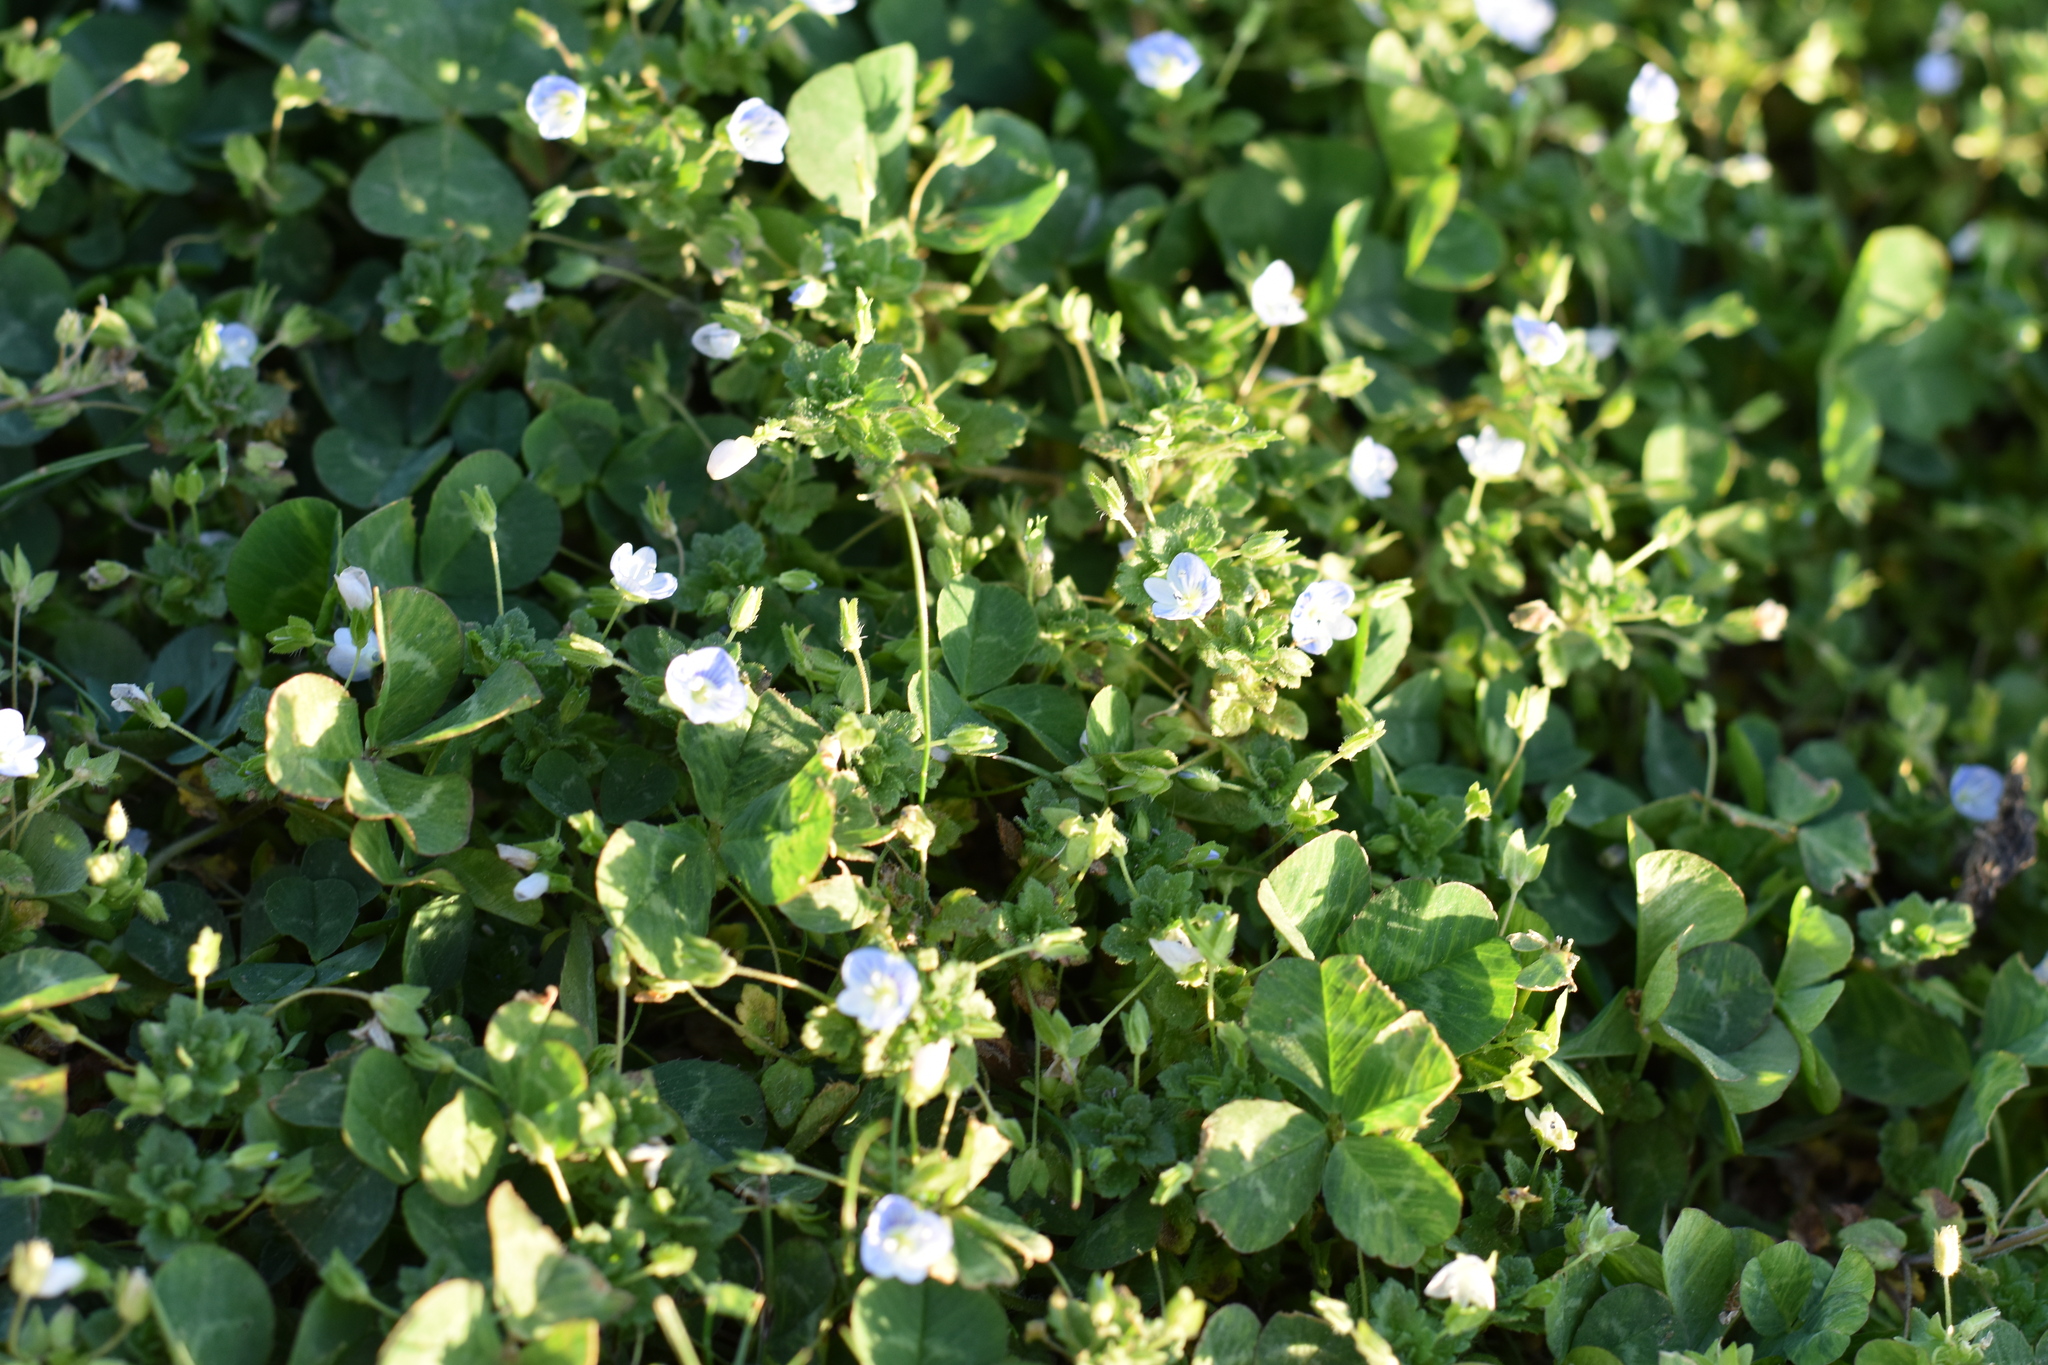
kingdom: Plantae
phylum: Tracheophyta
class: Magnoliopsida
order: Lamiales
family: Plantaginaceae
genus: Veronica
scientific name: Veronica persica
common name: Common field-speedwell
